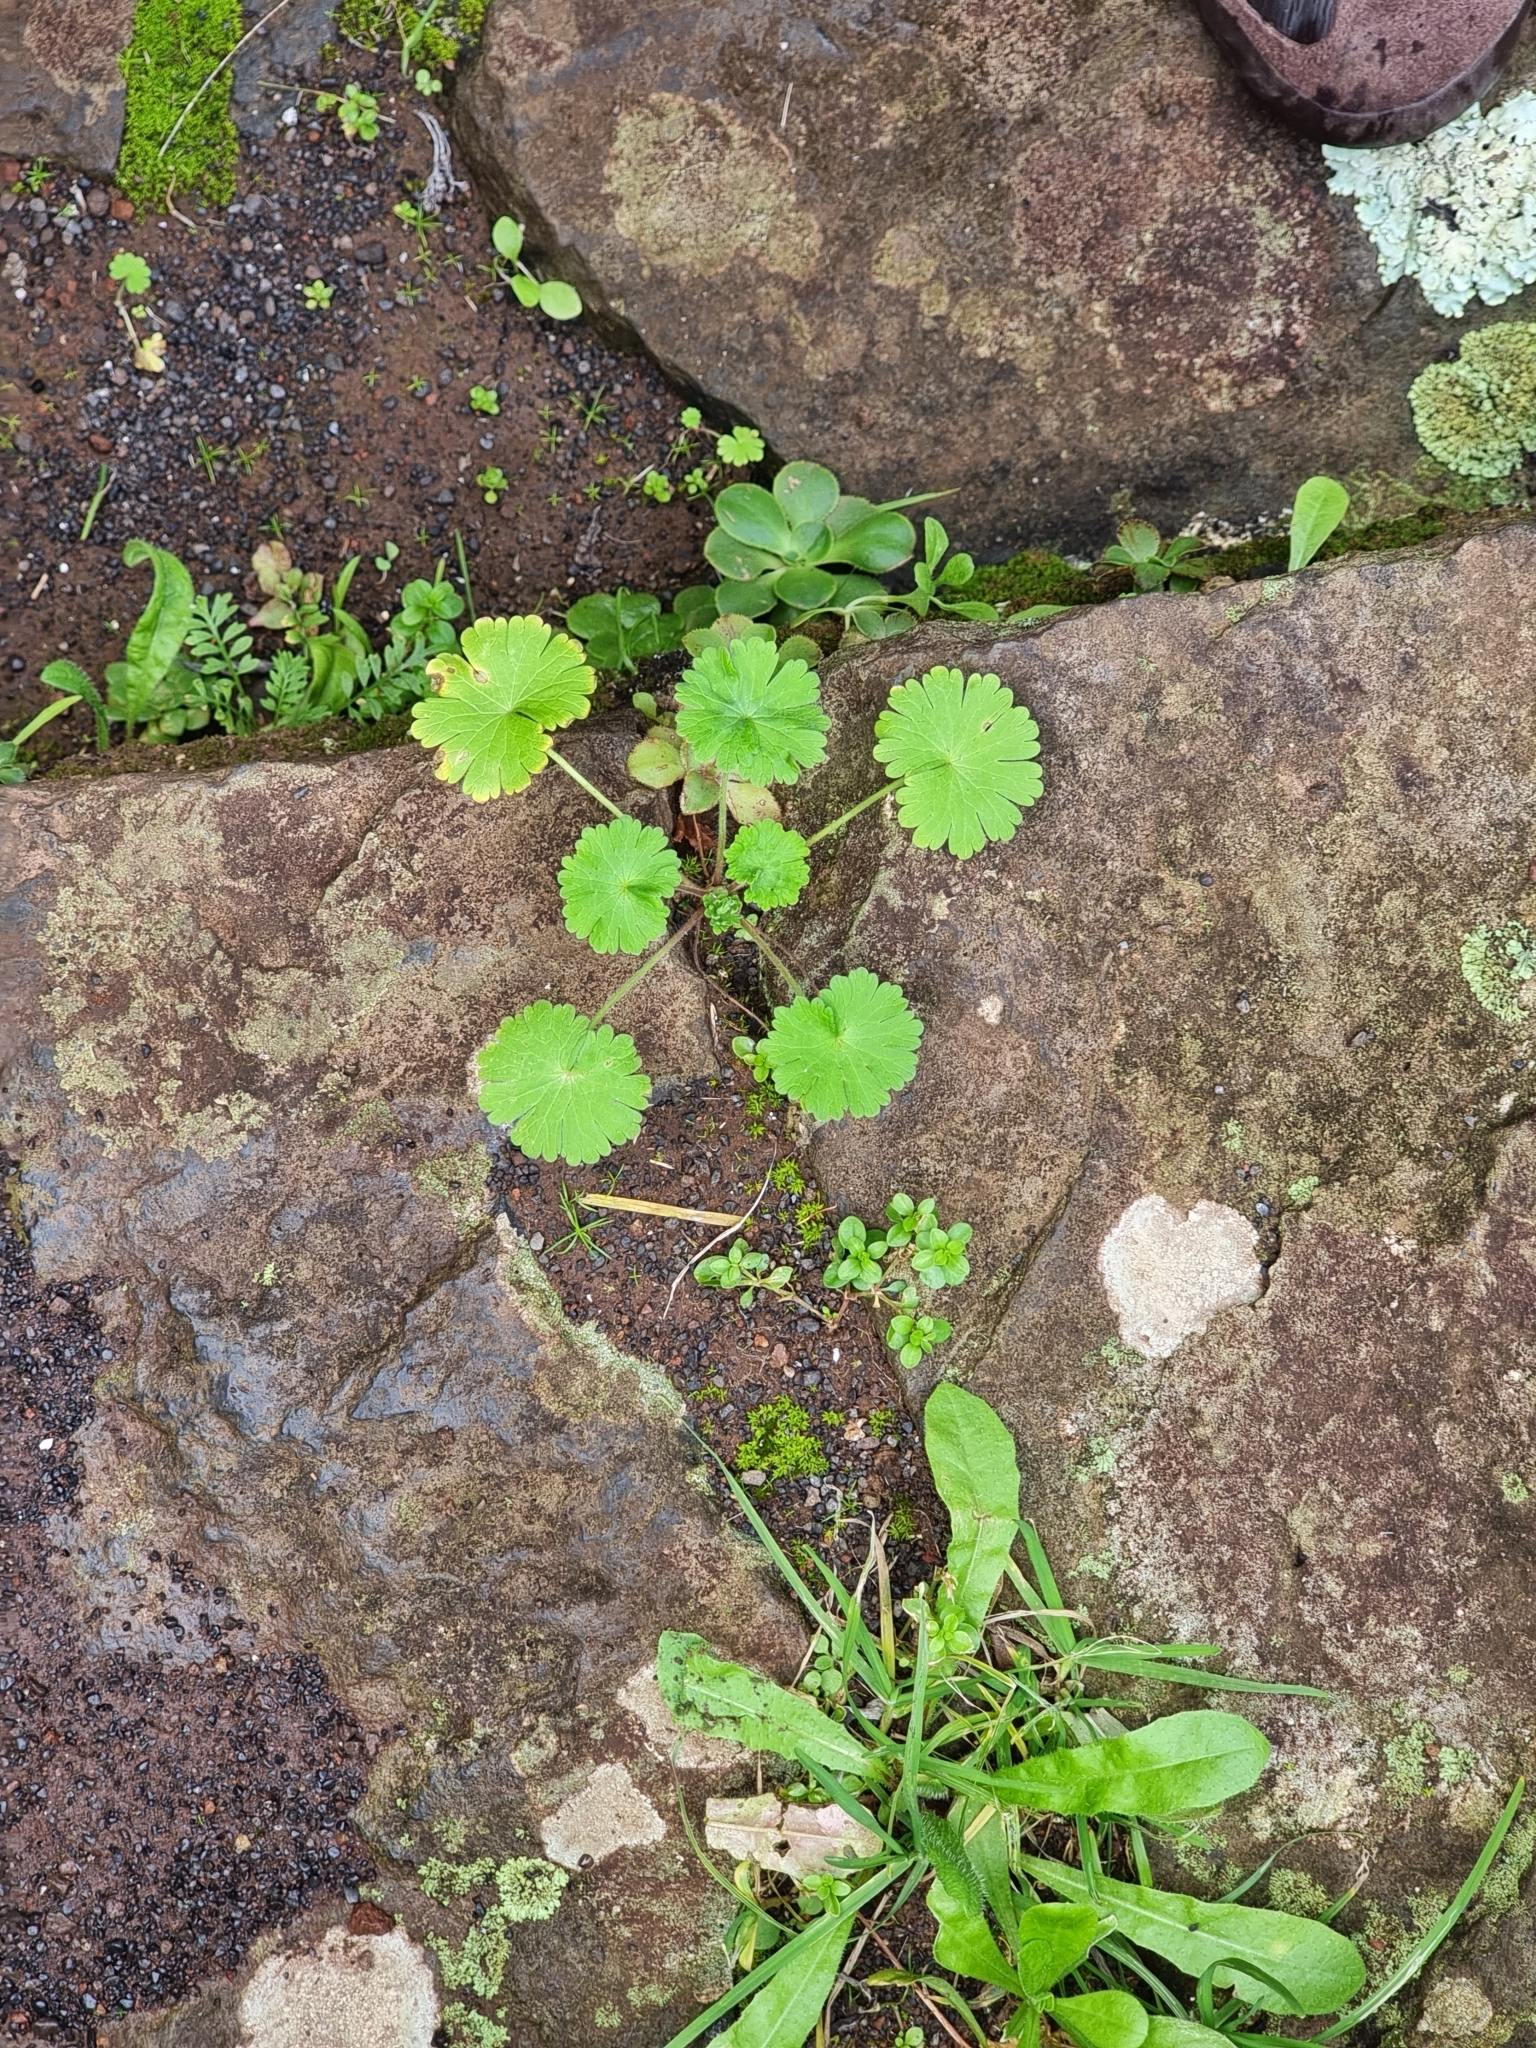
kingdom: Plantae
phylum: Tracheophyta
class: Magnoliopsida
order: Geraniales
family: Geraniaceae
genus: Geranium
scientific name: Geranium molle
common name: Dove's-foot crane's-bill
